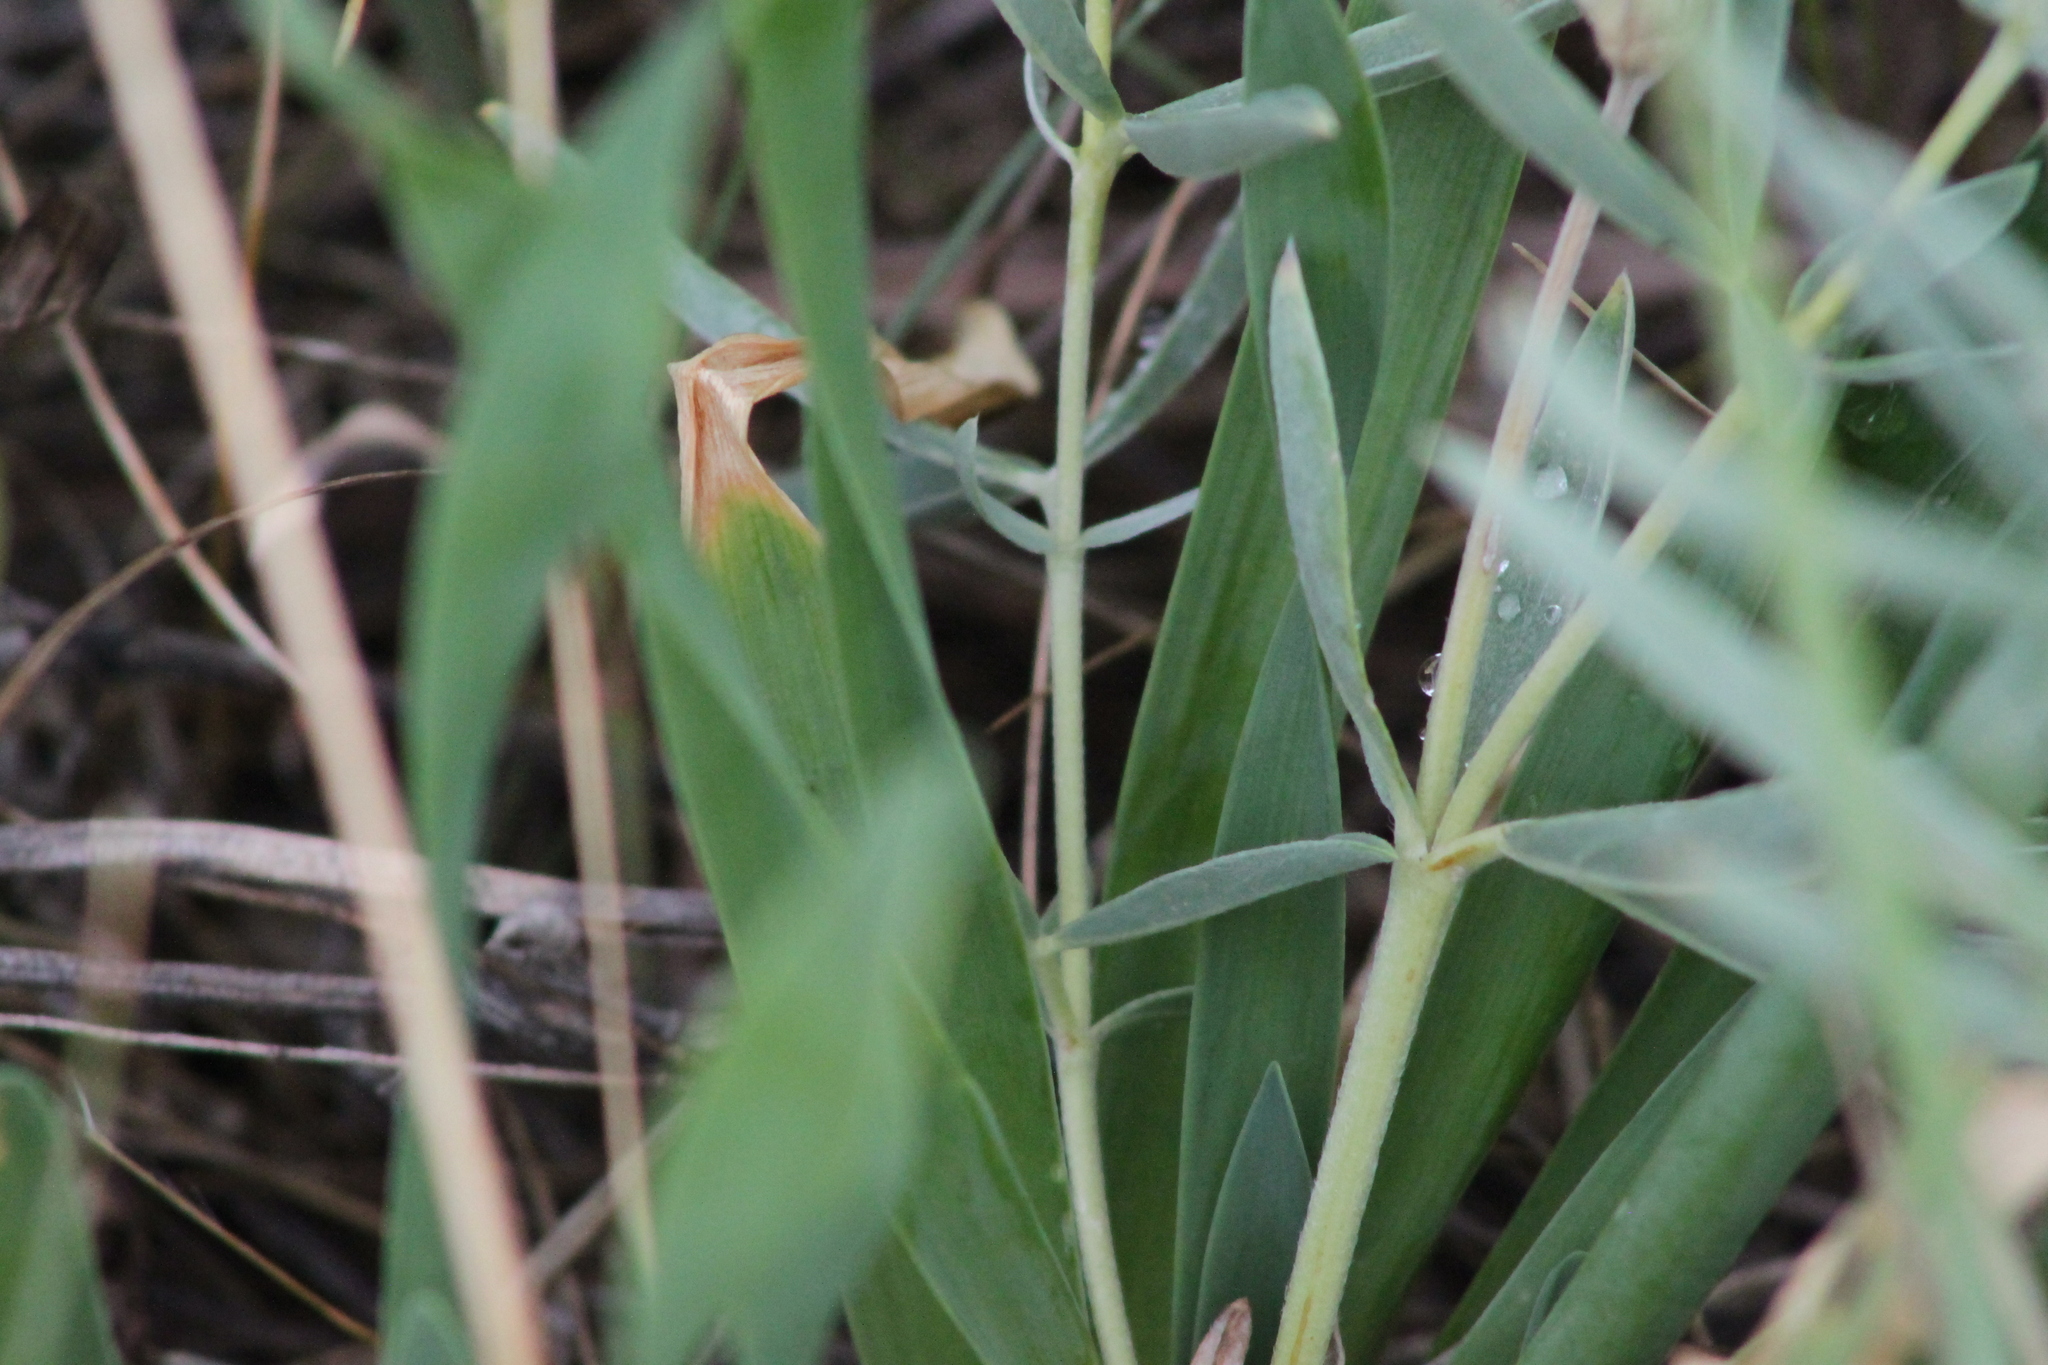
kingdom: Plantae
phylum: Tracheophyta
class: Liliopsida
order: Asparagales
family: Amaryllidaceae
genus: Allium
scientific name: Allium nutans
